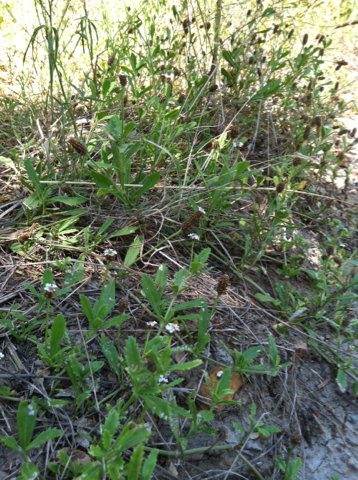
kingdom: Plantae
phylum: Tracheophyta
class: Magnoliopsida
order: Lamiales
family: Verbenaceae
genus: Phyla
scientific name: Phyla nodiflora
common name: Frogfruit
